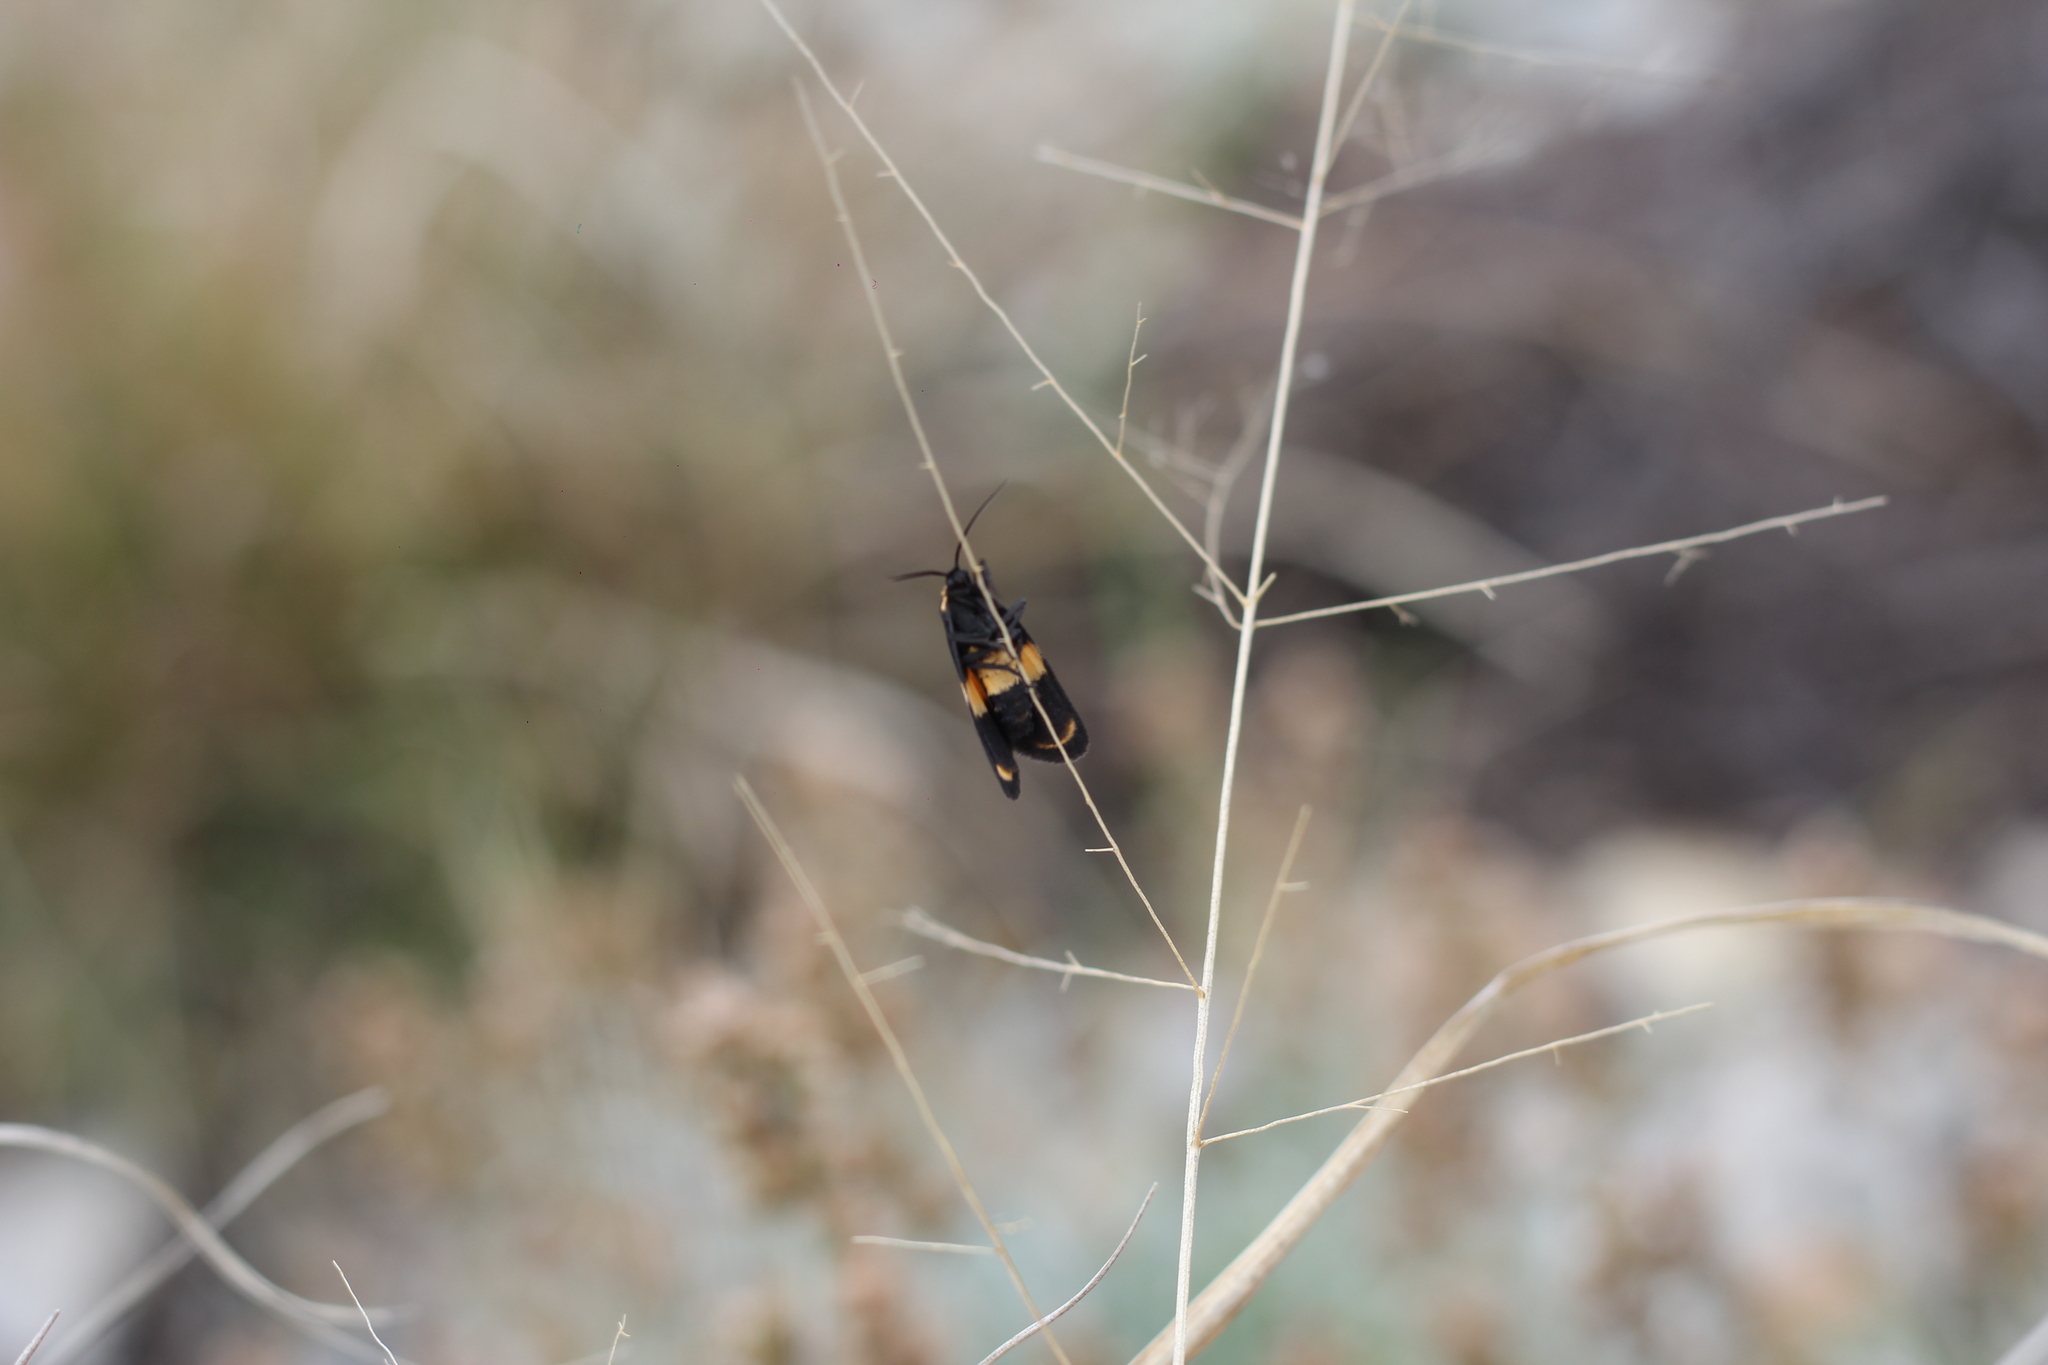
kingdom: Animalia
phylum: Arthropoda
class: Insecta
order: Lepidoptera
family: Erebidae
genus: Eudesmia
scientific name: Eudesmia
